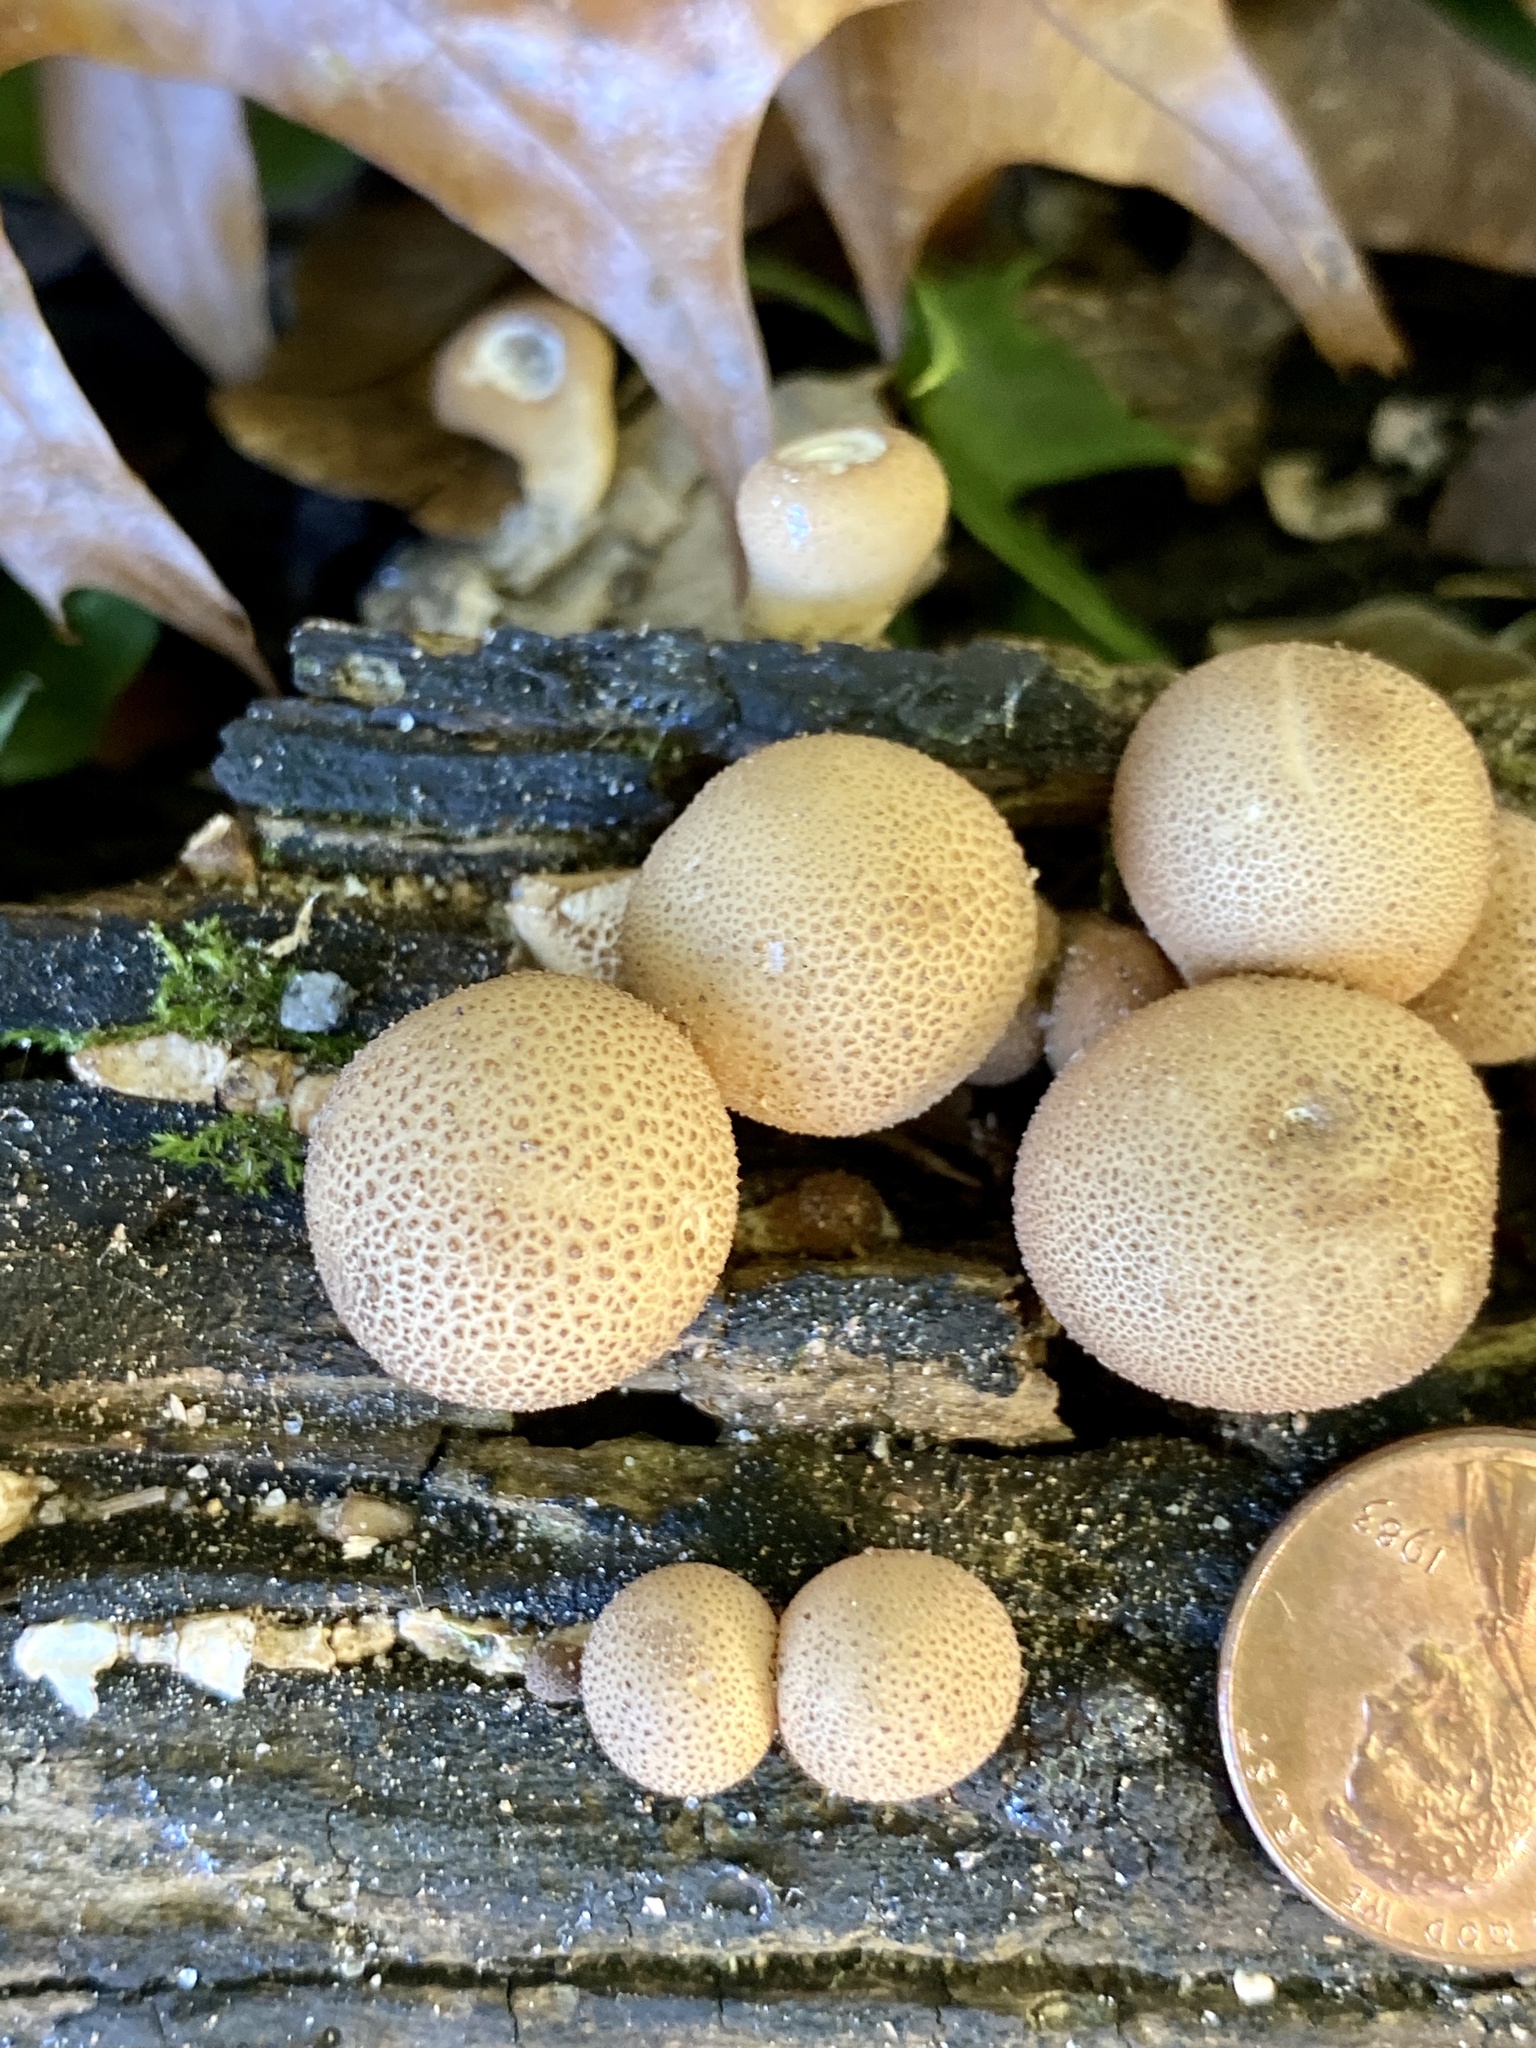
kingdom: Fungi
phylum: Basidiomycota
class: Agaricomycetes
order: Agaricales
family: Lycoperdaceae
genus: Apioperdon
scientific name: Apioperdon pyriforme
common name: Pear-shaped puffball
